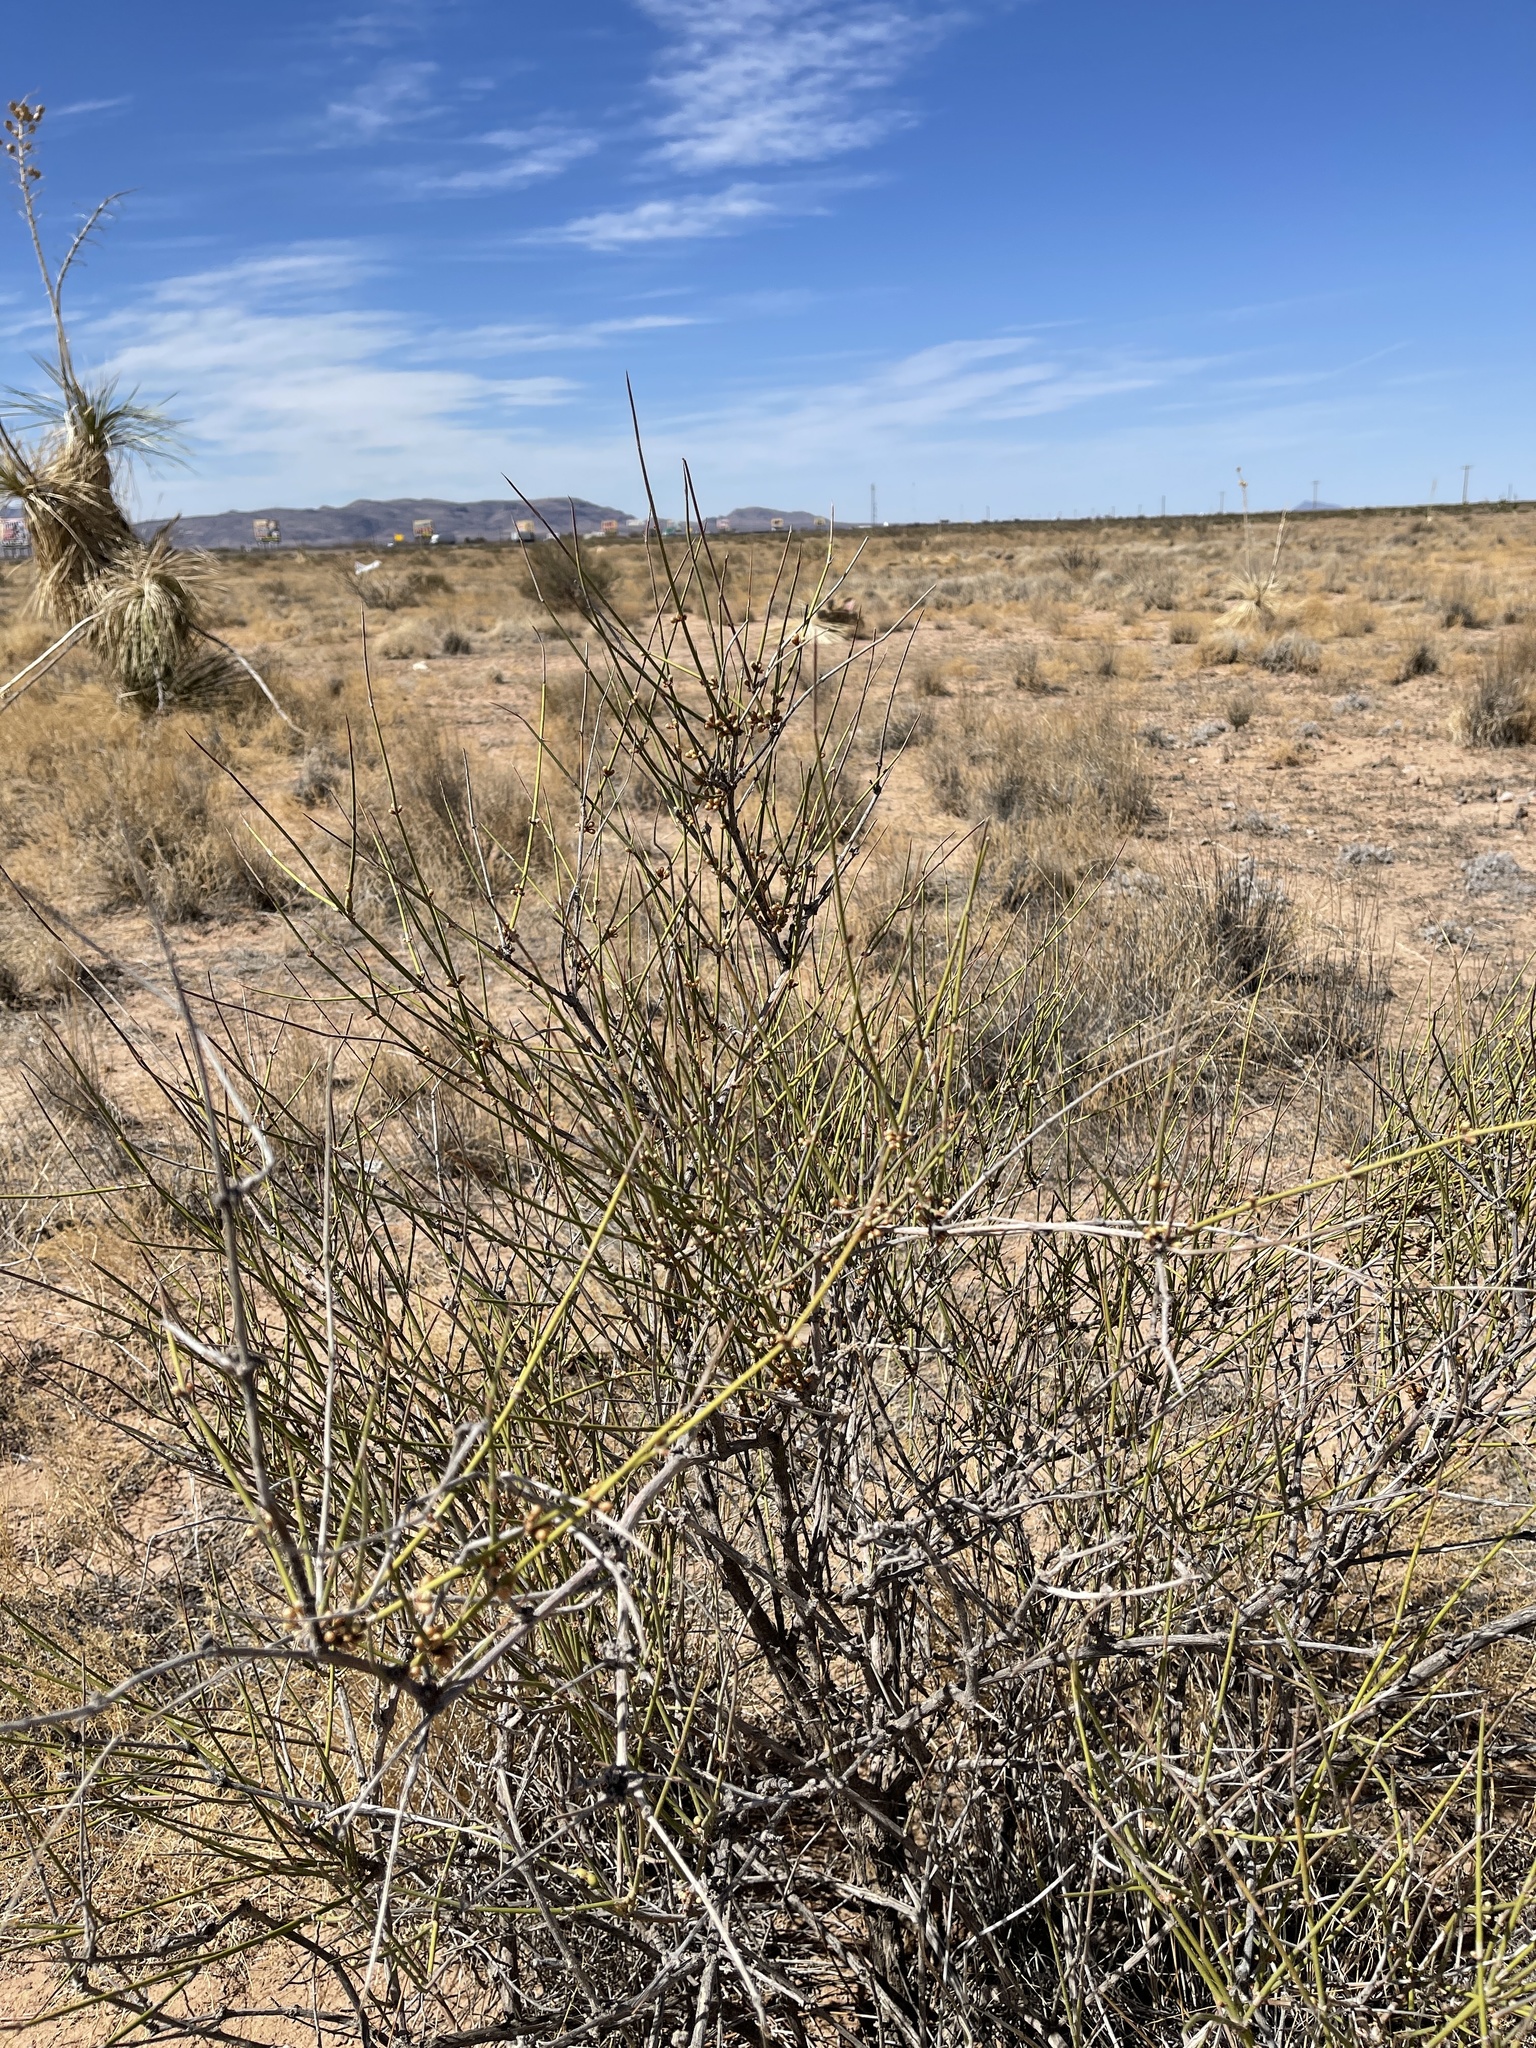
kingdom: Plantae
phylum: Tracheophyta
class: Gnetopsida
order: Ephedrales
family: Ephedraceae
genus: Ephedra
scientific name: Ephedra trifurca
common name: Mexican-tea
